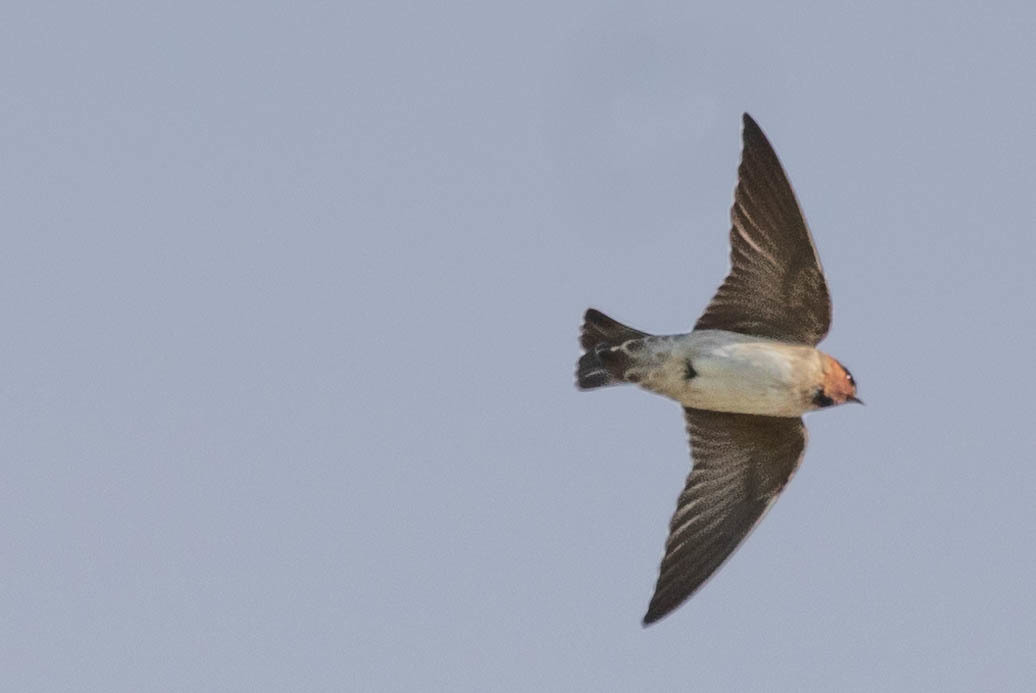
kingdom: Animalia
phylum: Chordata
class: Aves
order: Passeriformes
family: Hirundinidae
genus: Petrochelidon
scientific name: Petrochelidon pyrrhonota
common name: American cliff swallow
